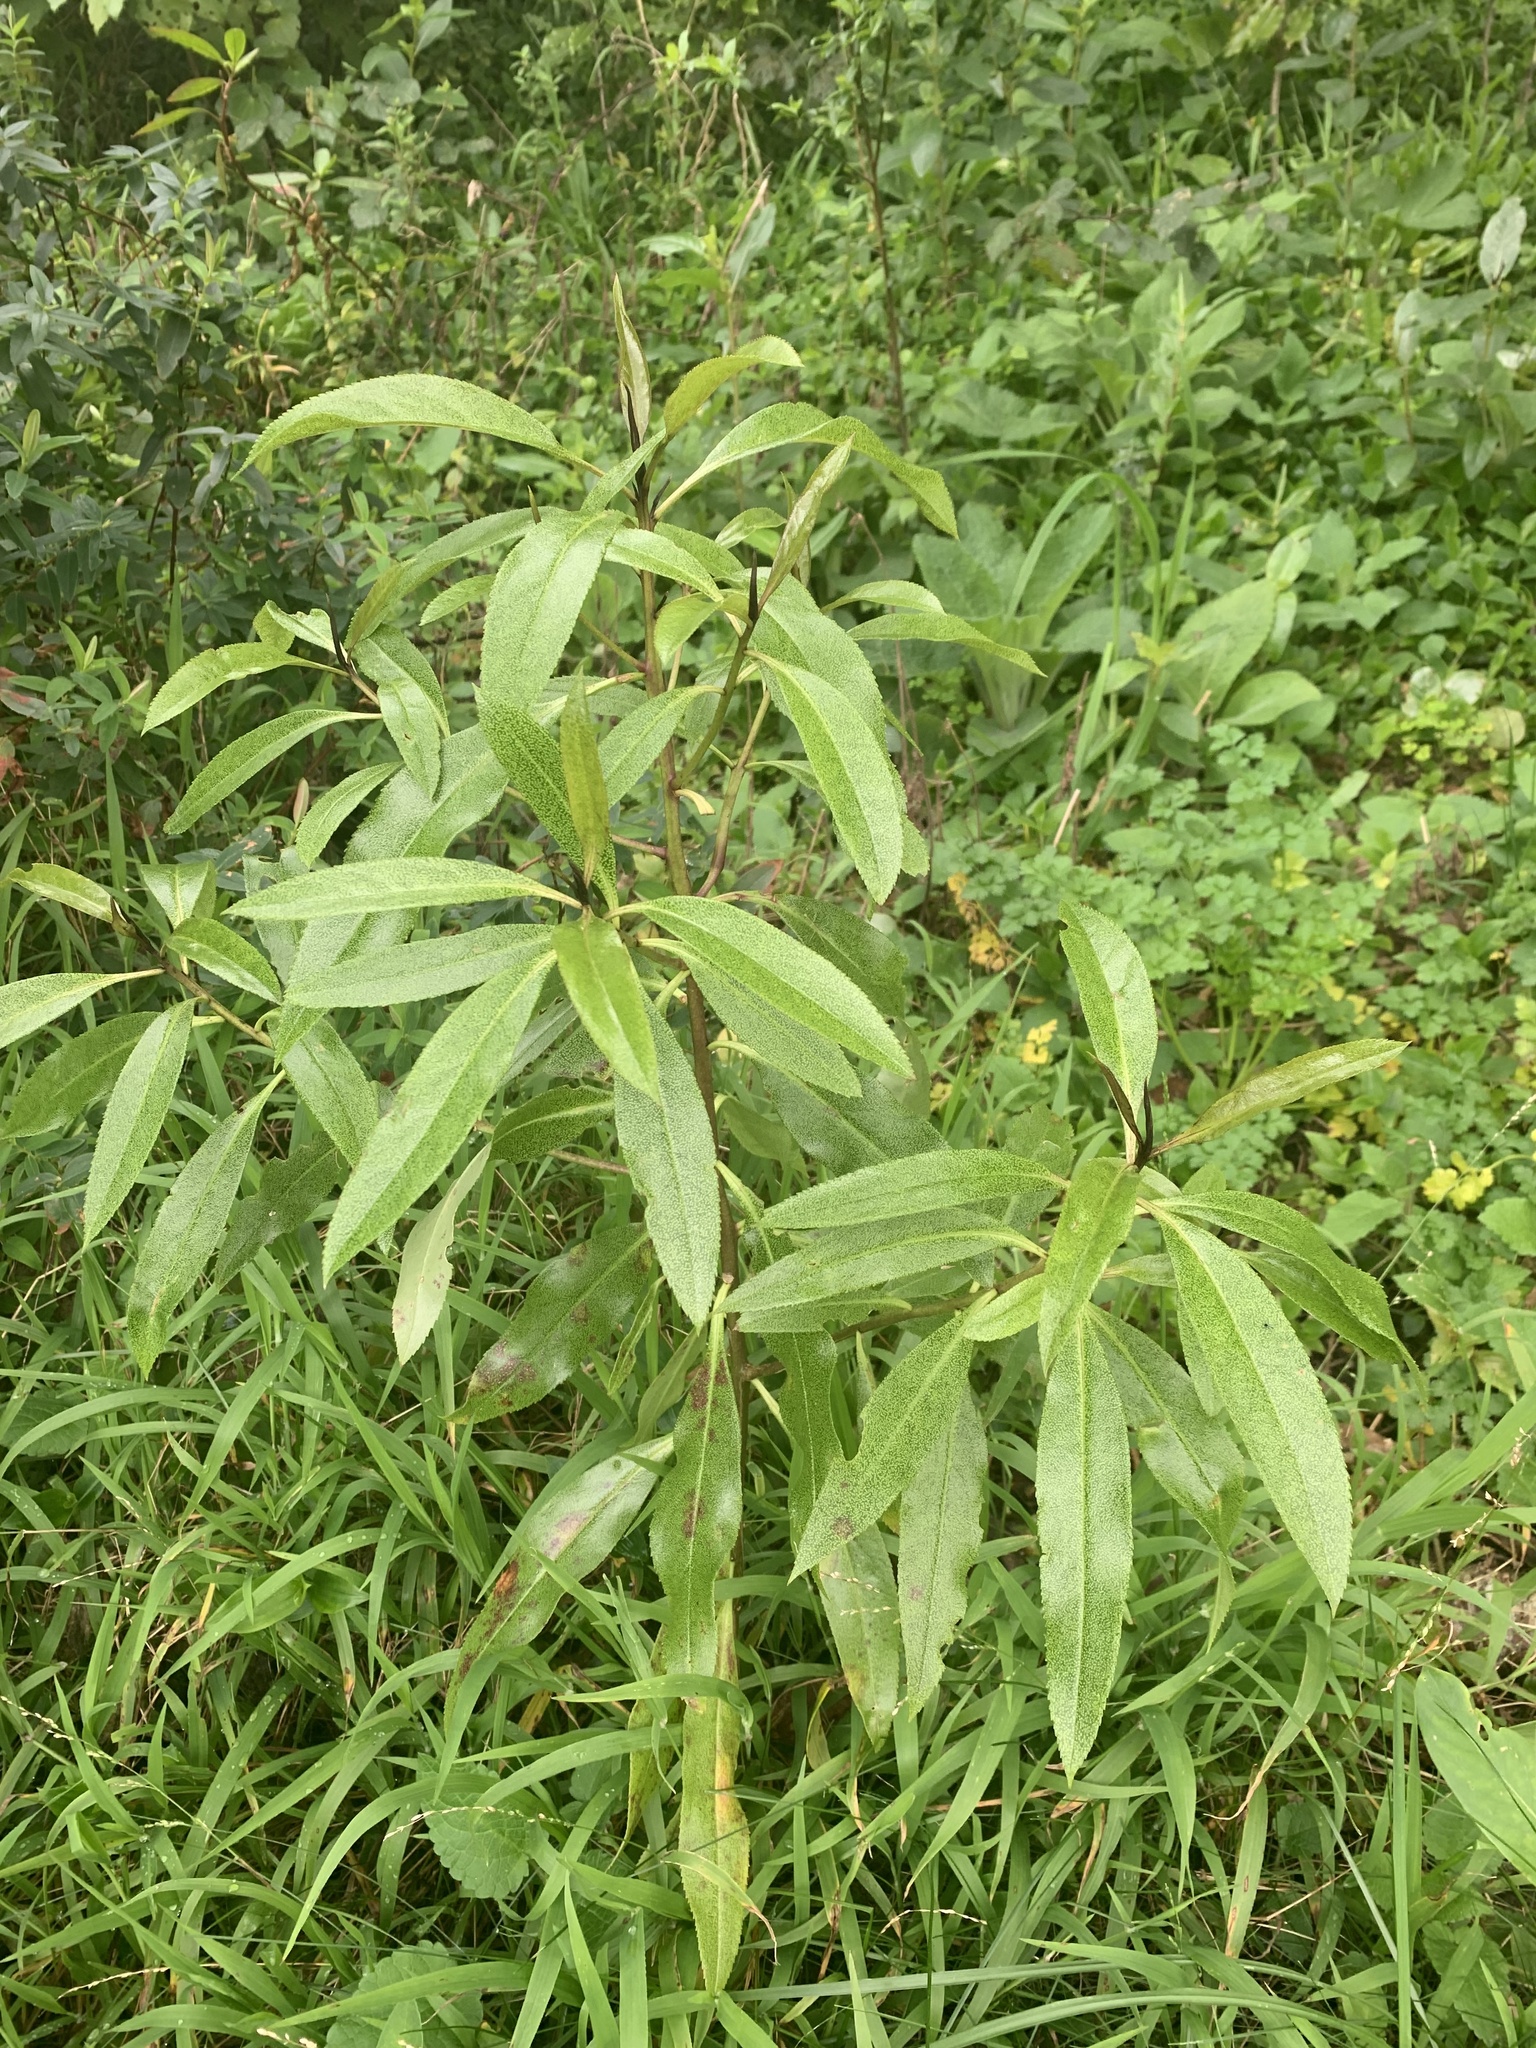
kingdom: Plantae
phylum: Tracheophyta
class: Magnoliopsida
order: Lamiales
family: Scrophulariaceae
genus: Myoporum
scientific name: Myoporum laetum
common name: Ngaio tree
